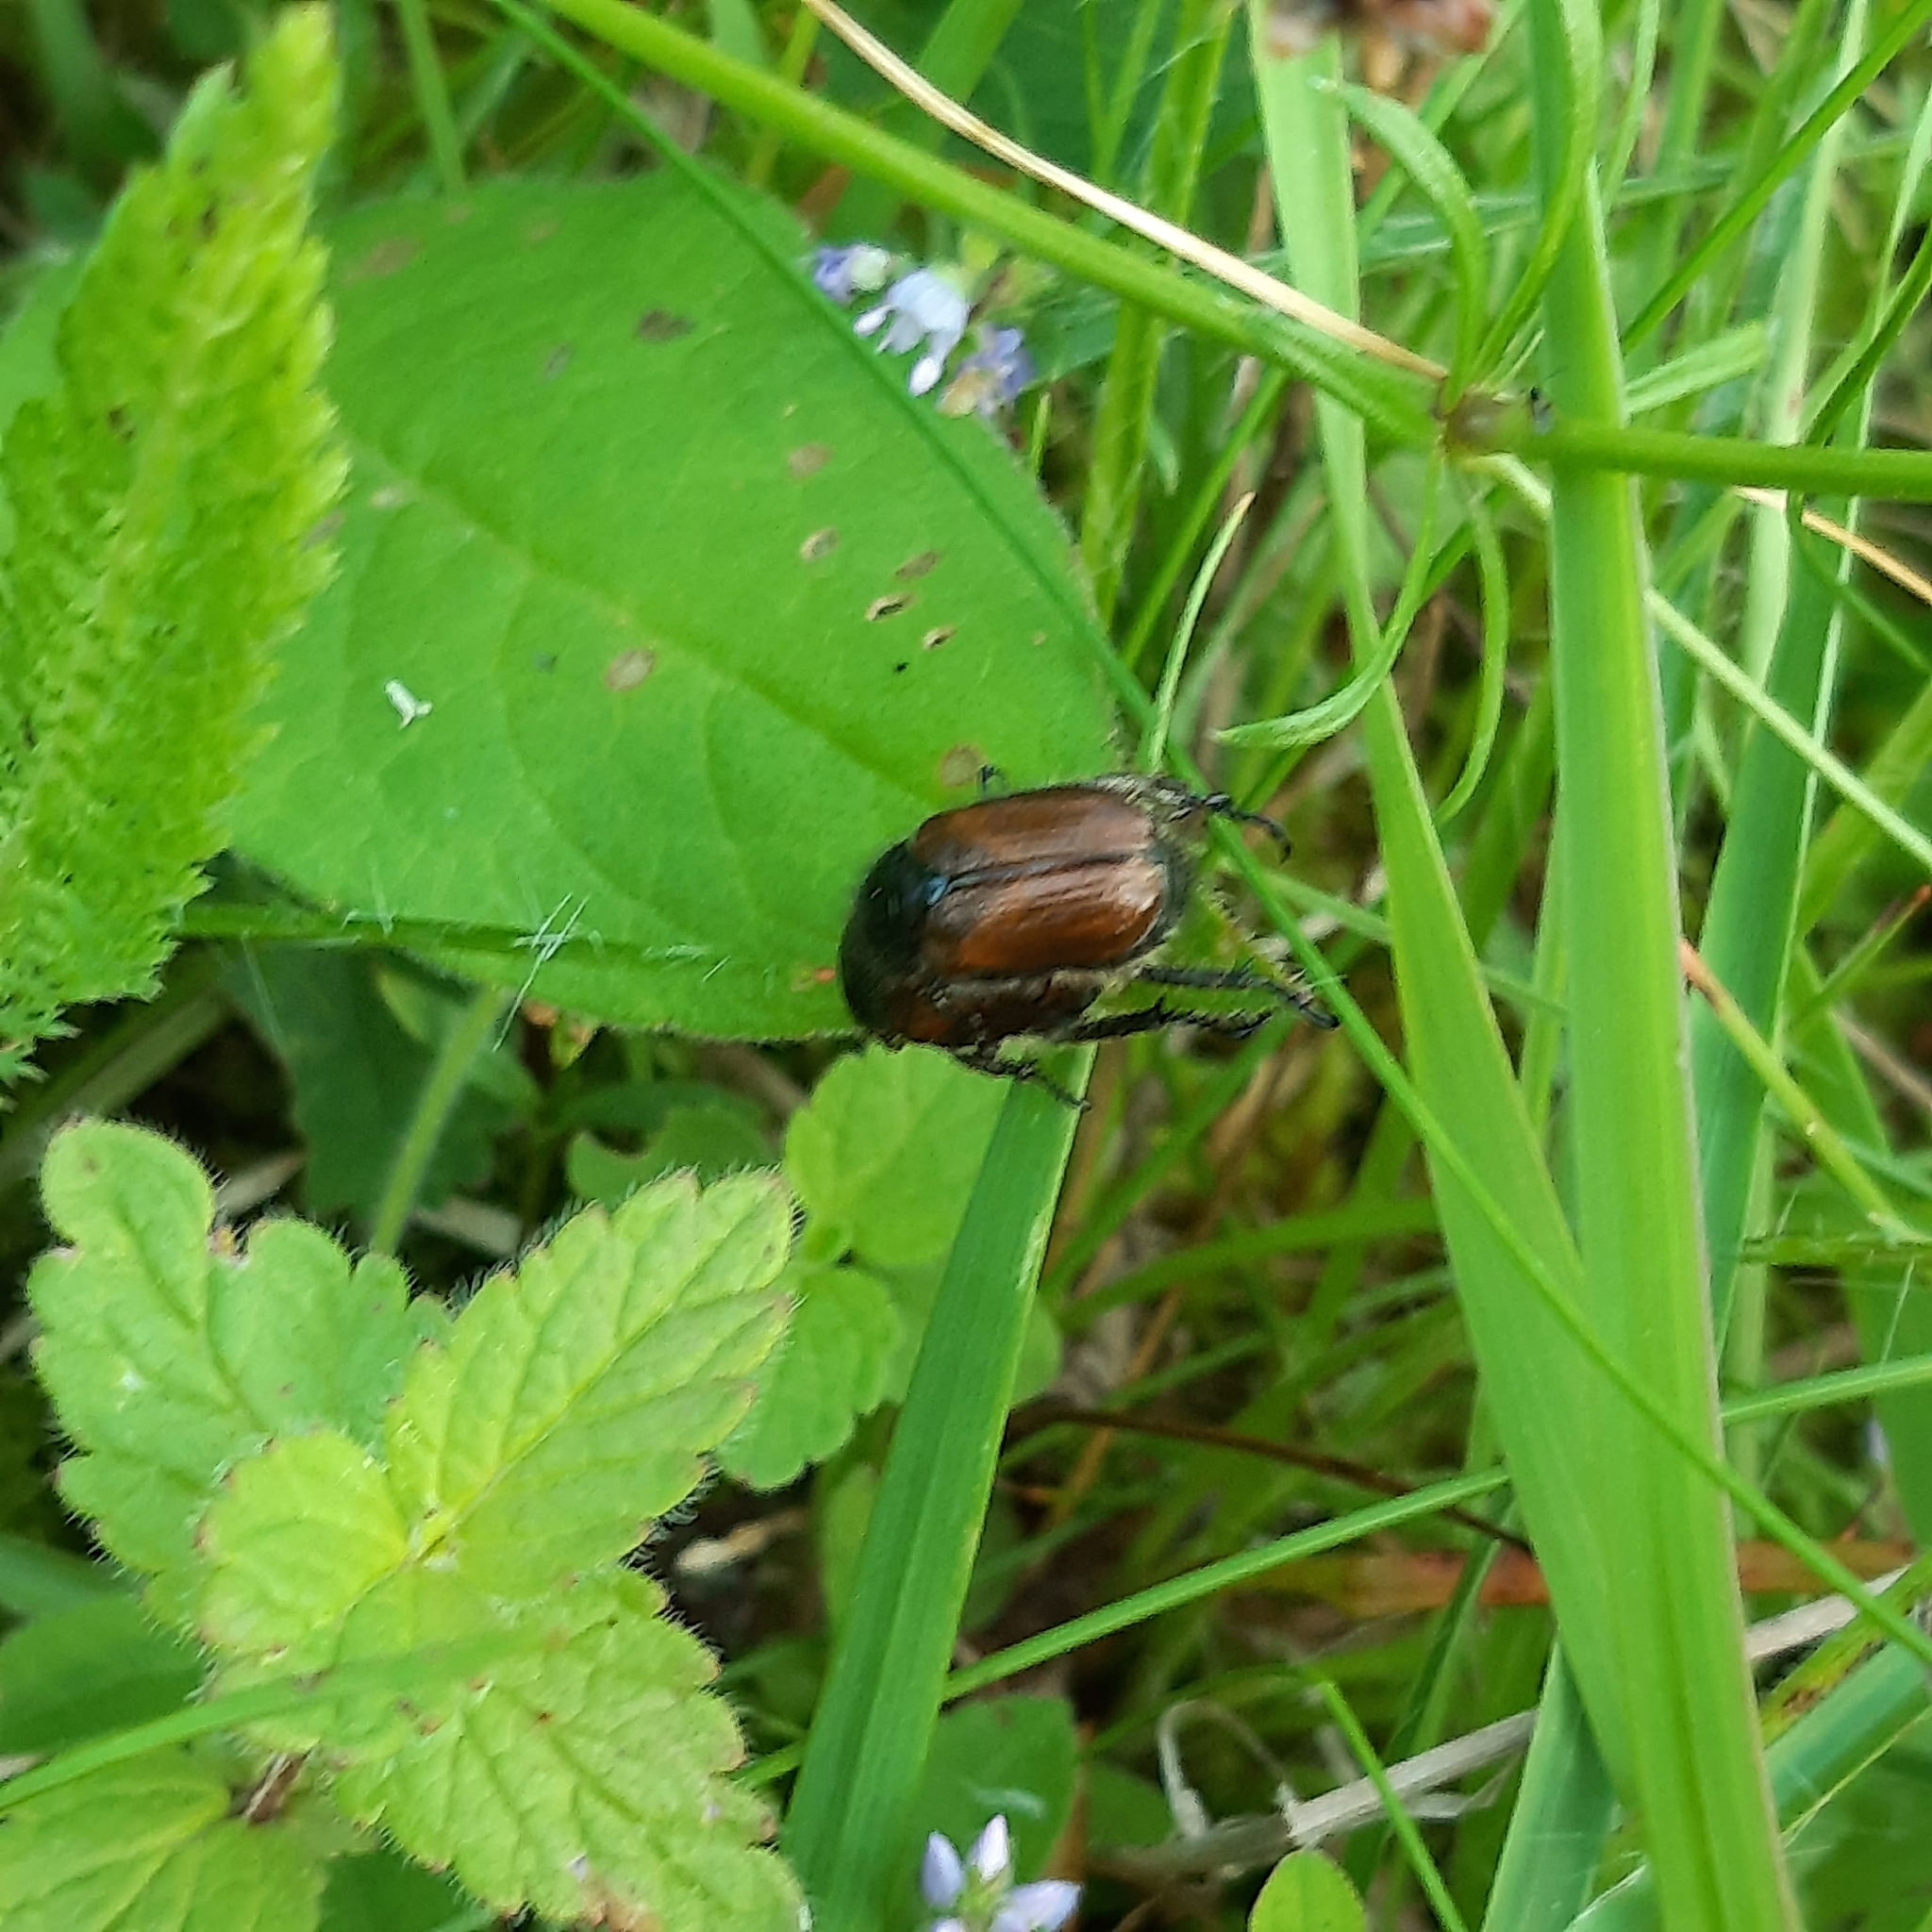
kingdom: Animalia
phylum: Arthropoda
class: Insecta
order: Coleoptera
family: Scarabaeidae
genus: Phyllopertha
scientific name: Phyllopertha horticola
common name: Garden chafer
